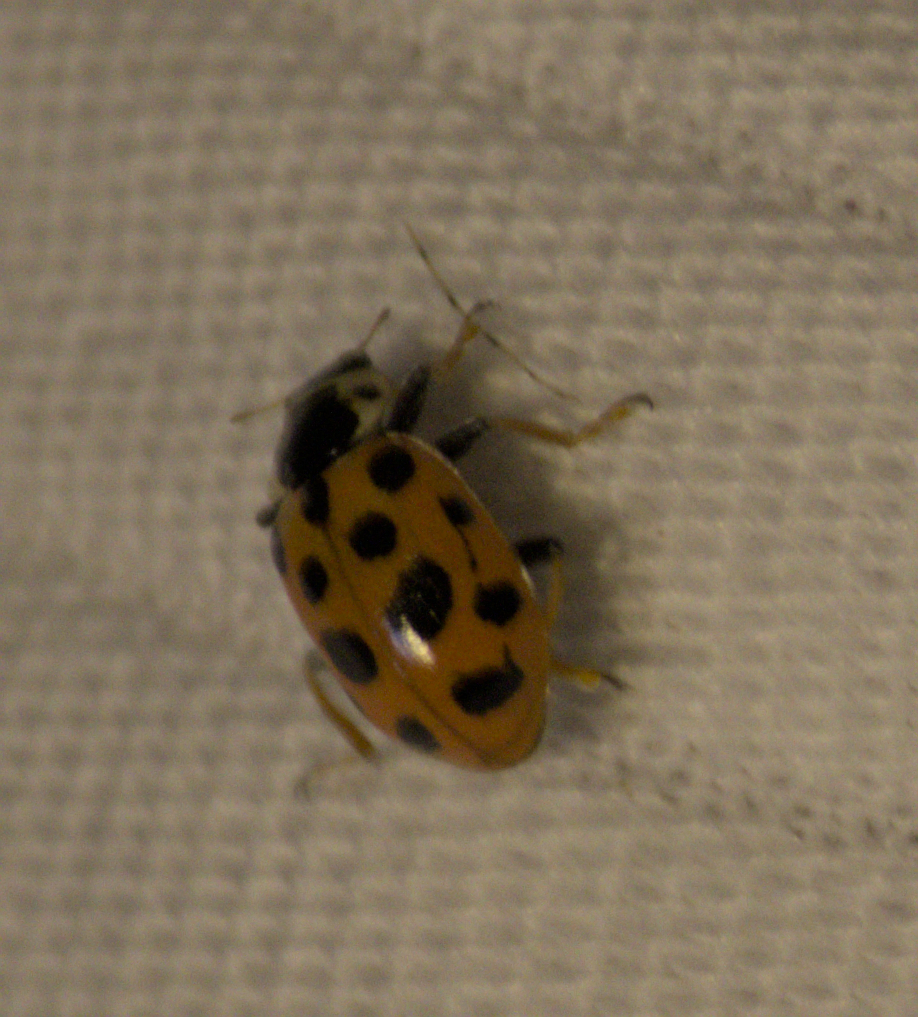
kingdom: Animalia
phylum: Arthropoda
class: Insecta
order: Coleoptera
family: Coccinellidae
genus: Hippodamia
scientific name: Hippodamia tredecimpunctata
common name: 13-spot ladybird
